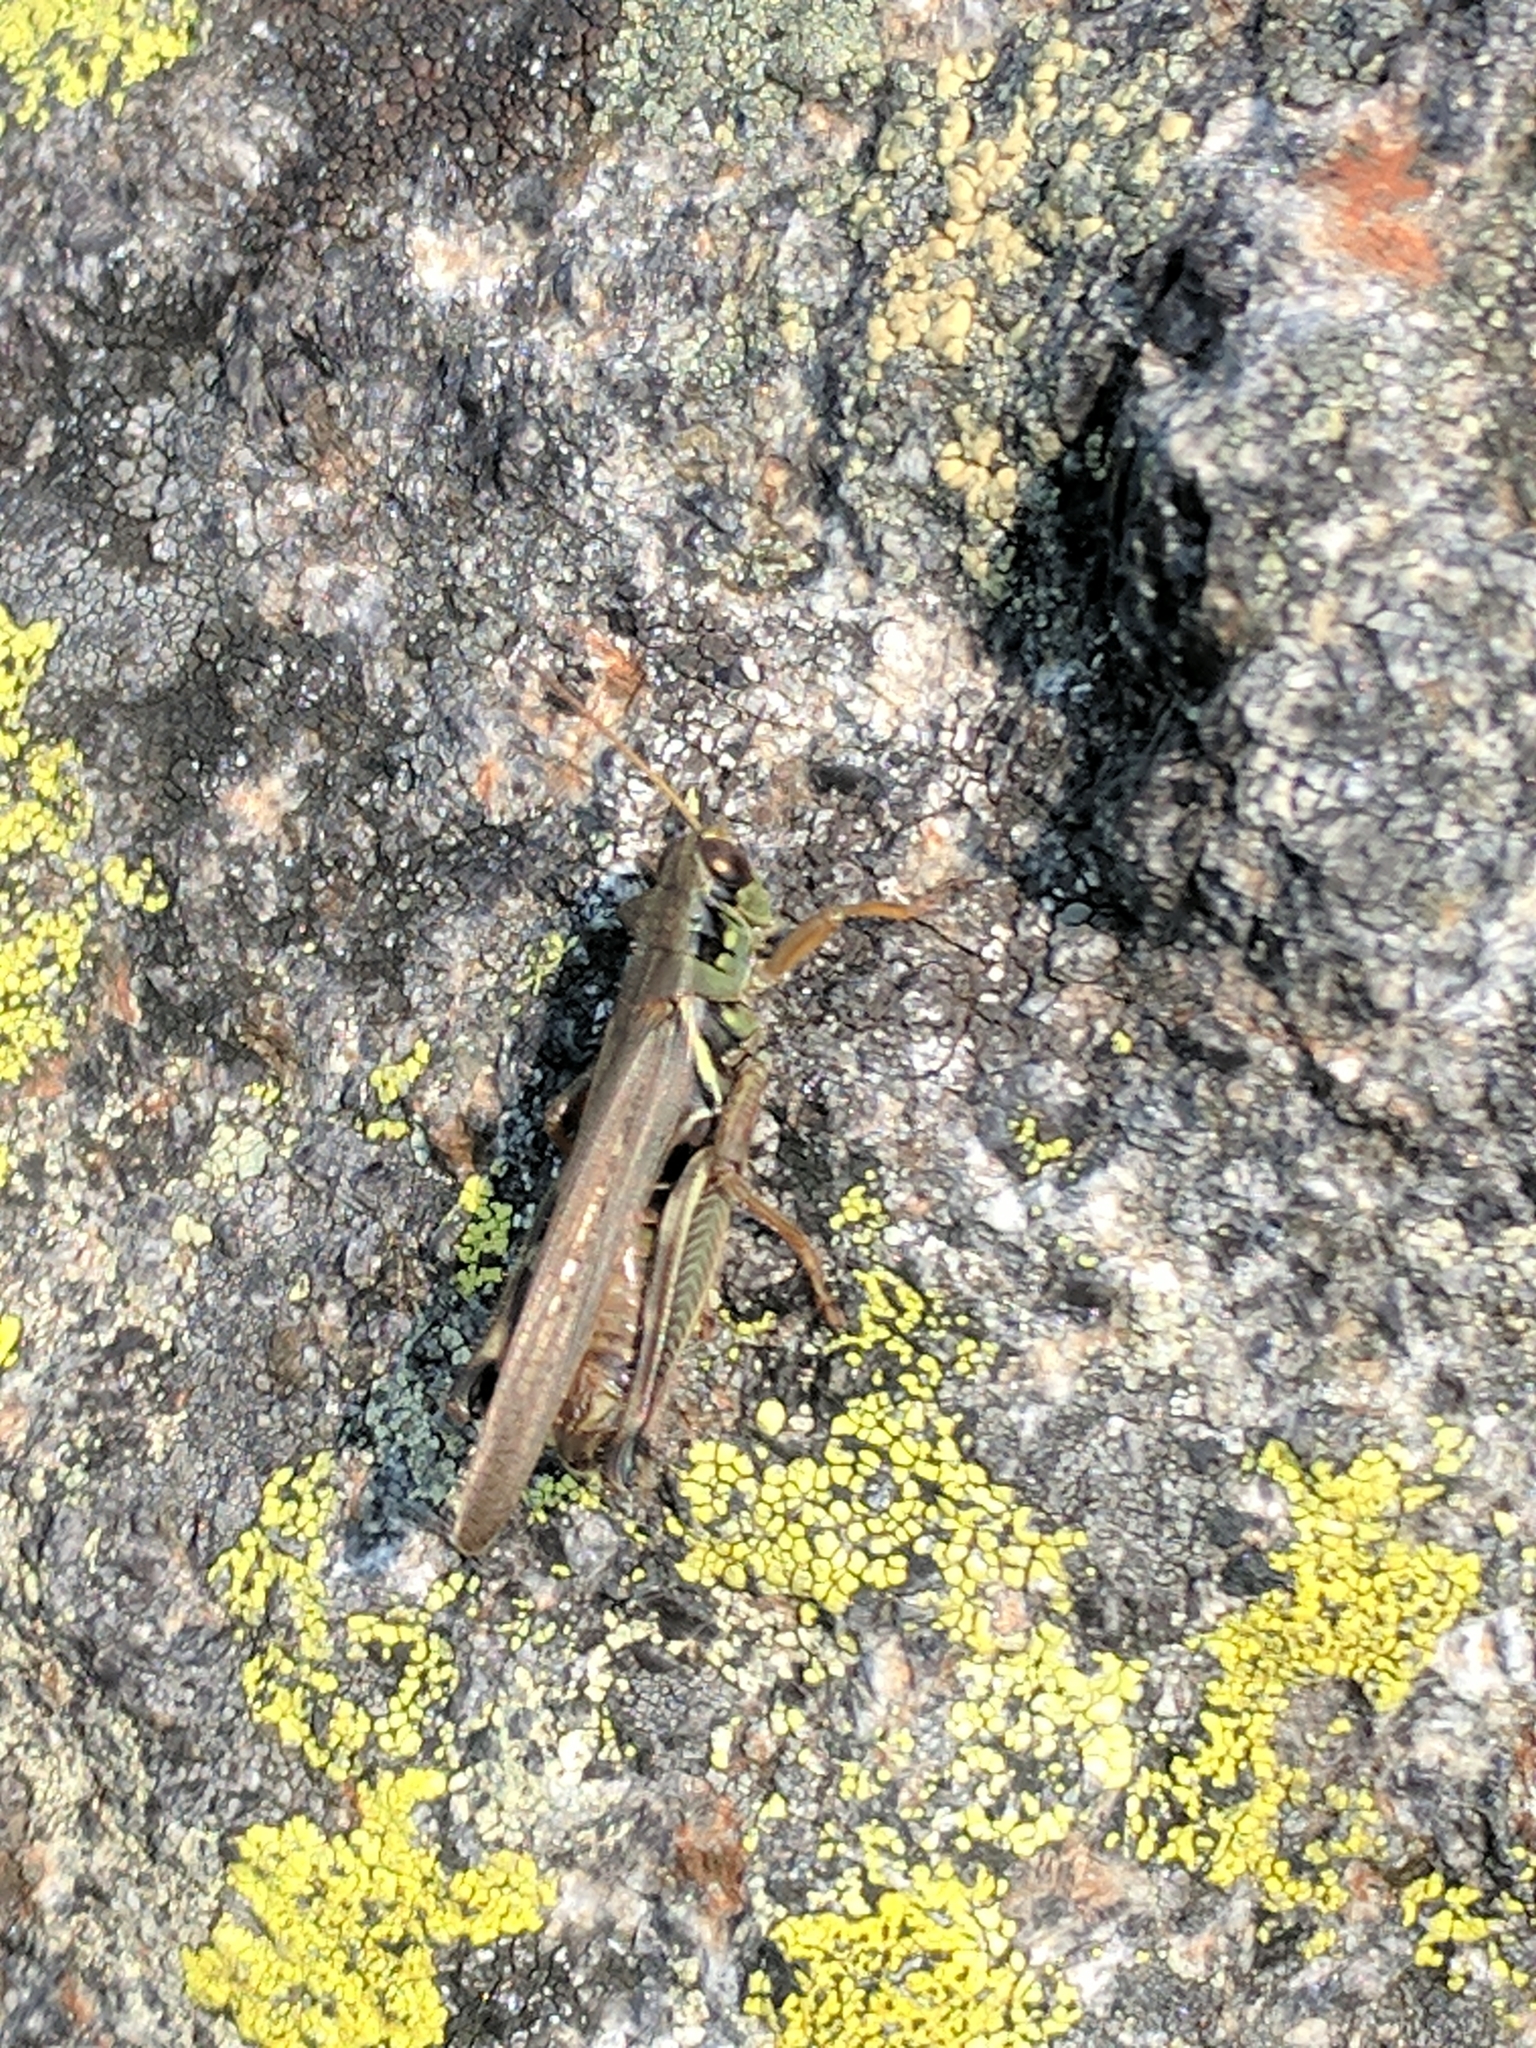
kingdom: Animalia
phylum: Arthropoda
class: Insecta
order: Orthoptera
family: Acrididae
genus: Melanoplus
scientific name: Melanoplus femurrubrum
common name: Red-legged grasshopper
